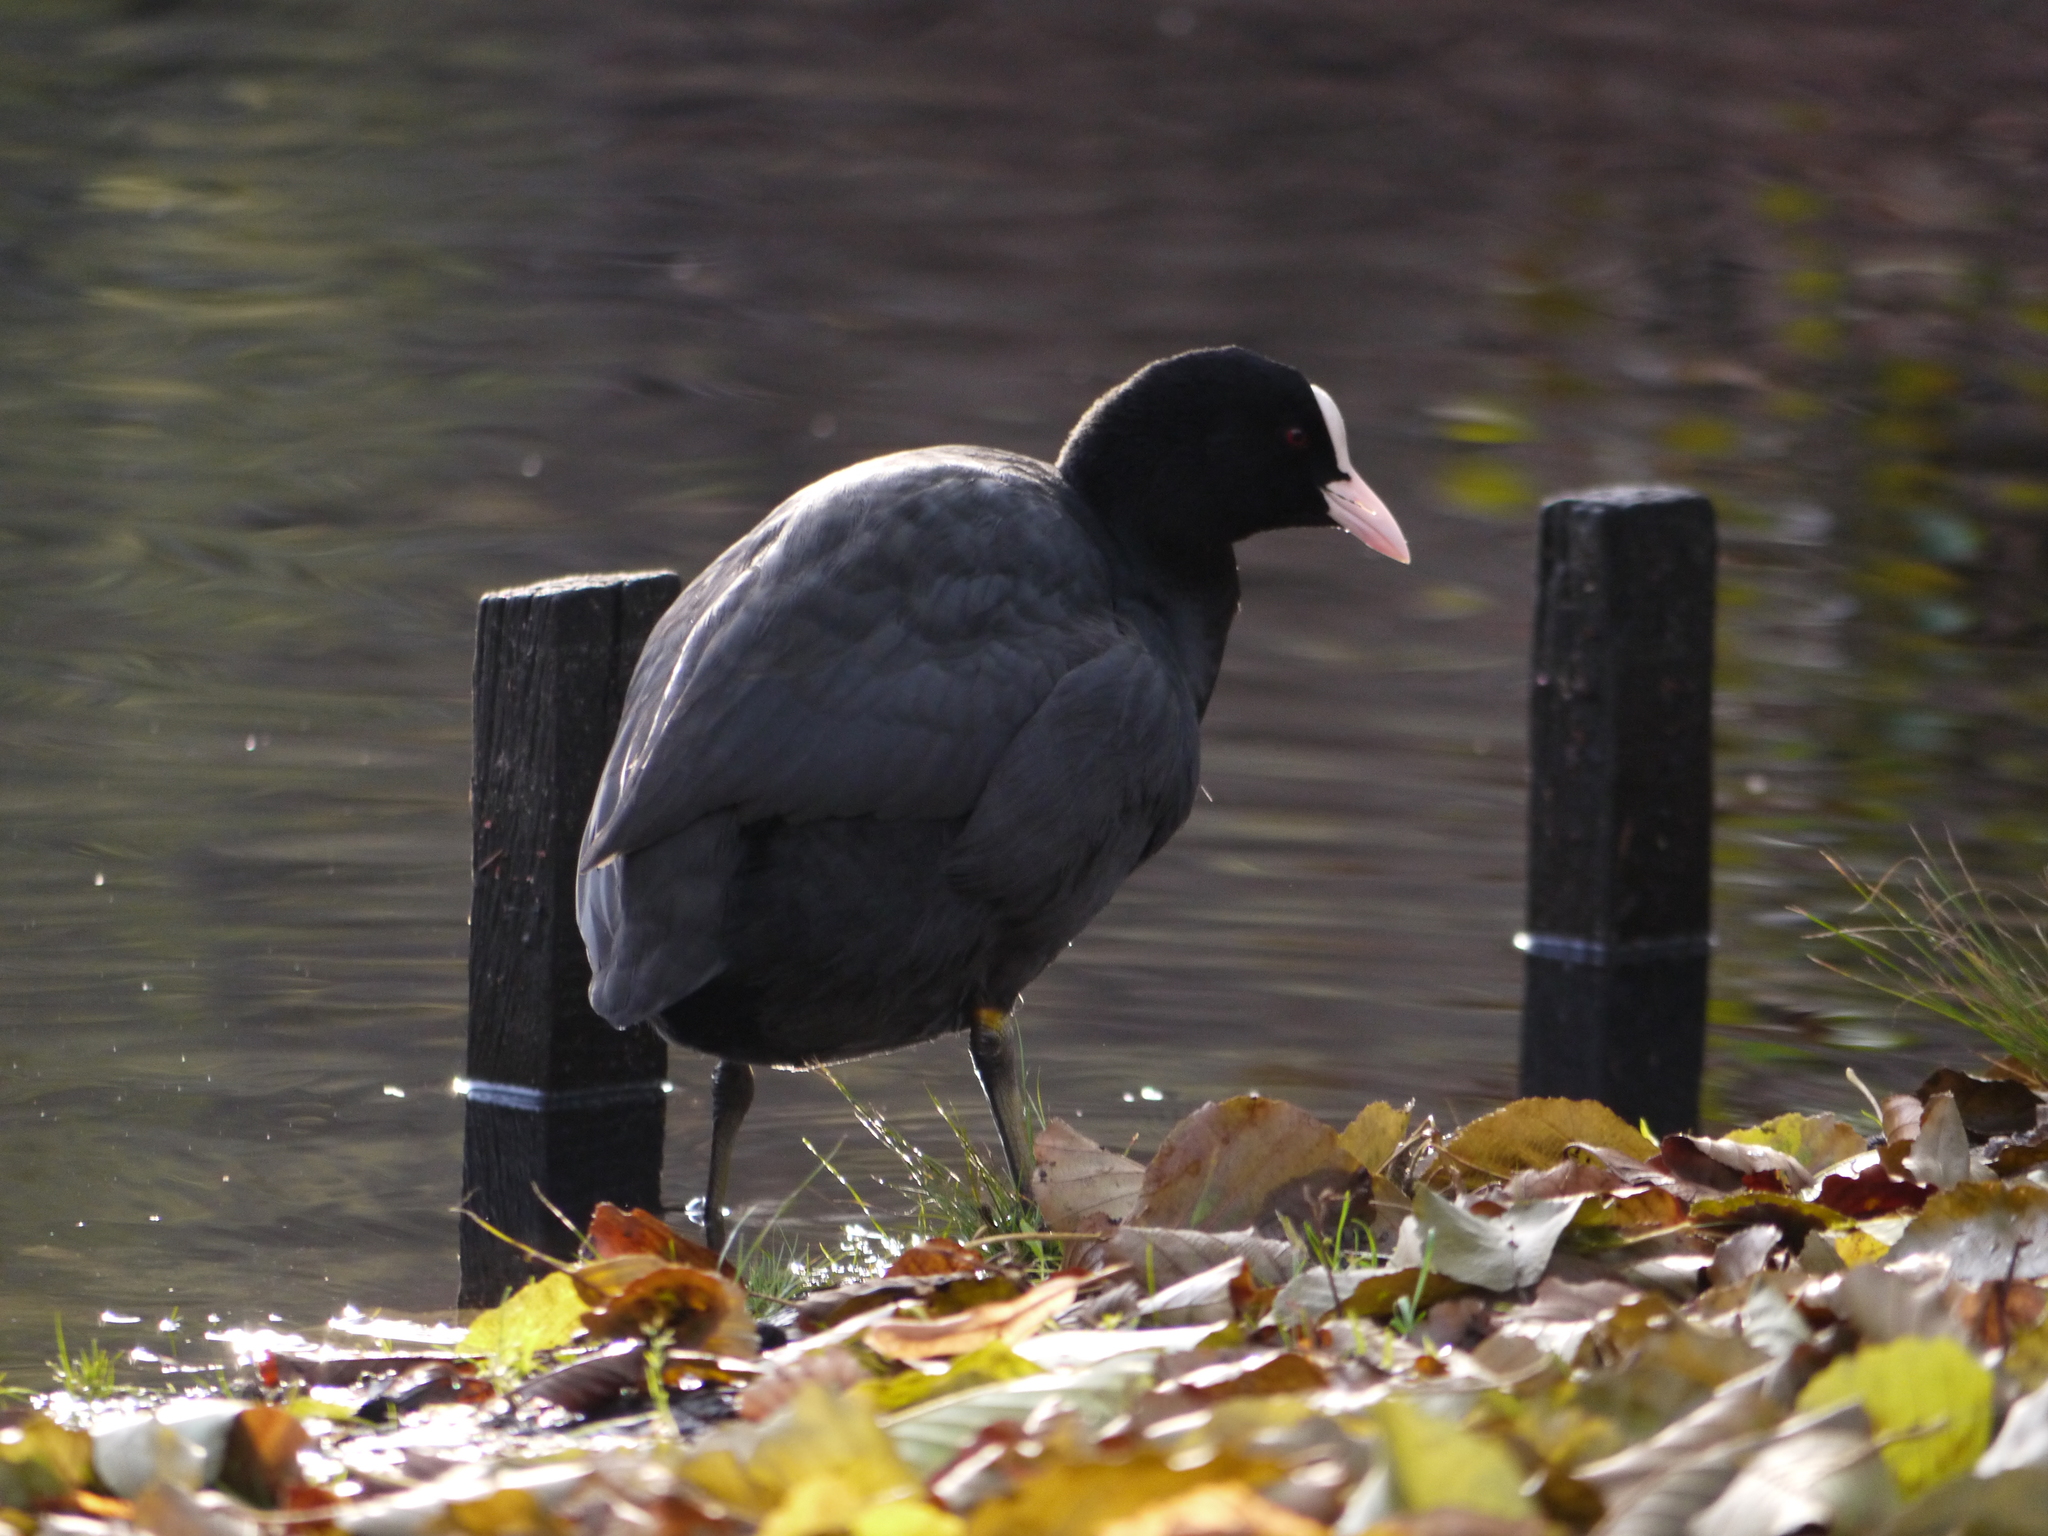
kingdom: Animalia
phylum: Chordata
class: Aves
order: Gruiformes
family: Rallidae
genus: Fulica
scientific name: Fulica atra
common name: Eurasian coot
